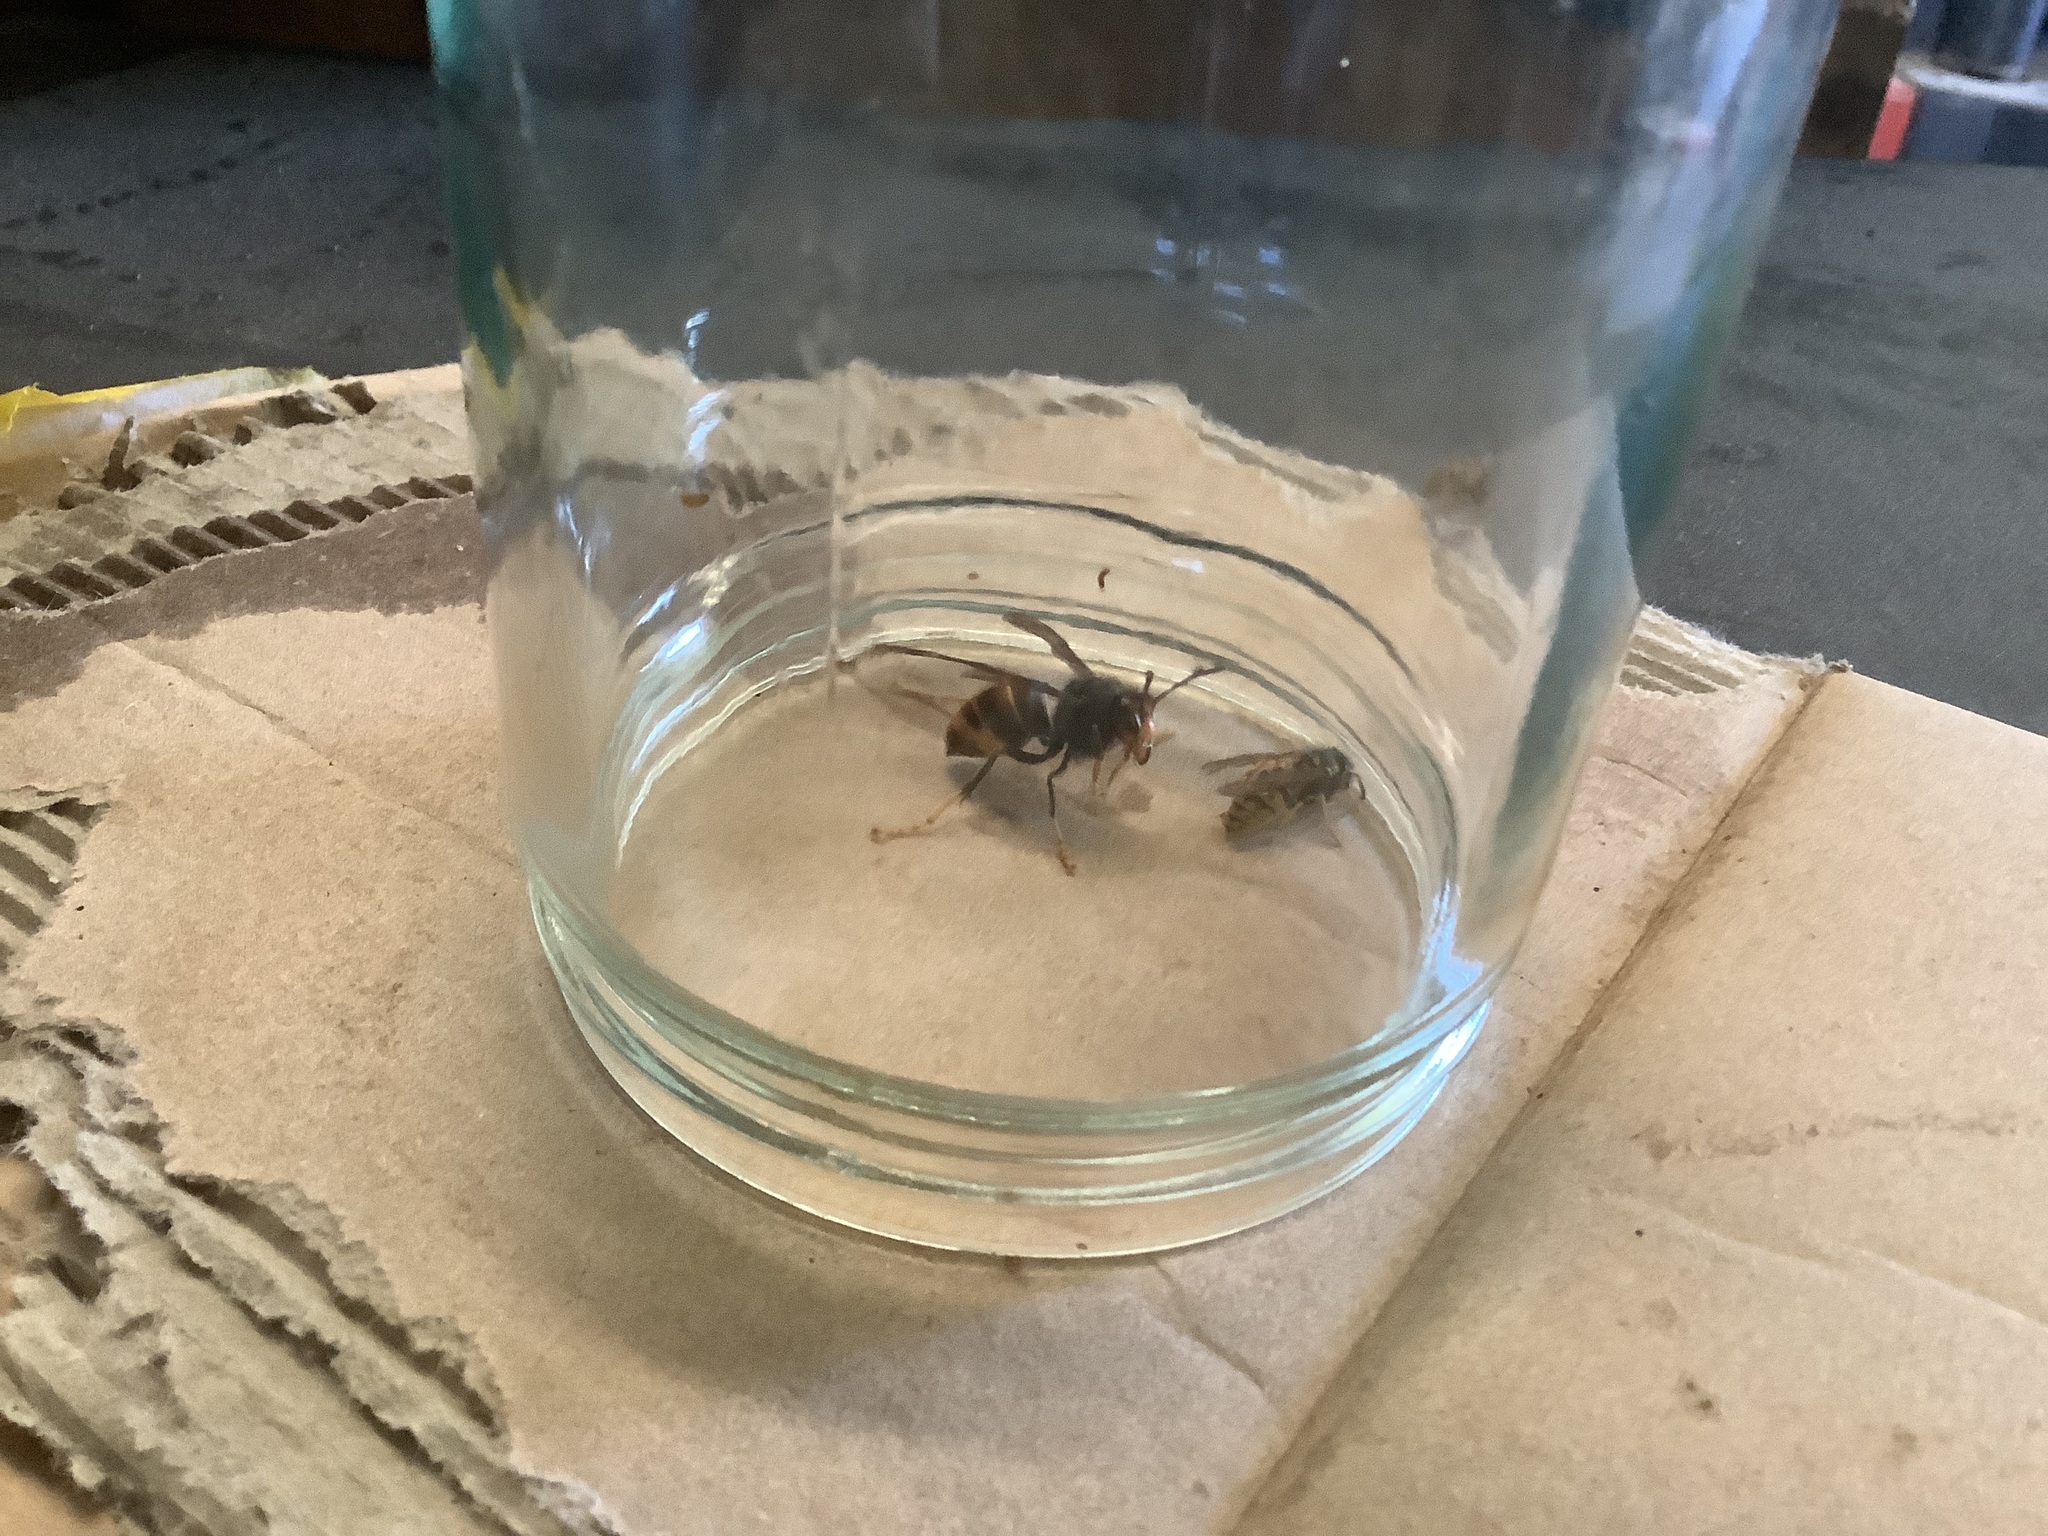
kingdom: Animalia
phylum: Arthropoda
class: Insecta
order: Hymenoptera
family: Vespidae
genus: Vespa
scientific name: Vespa velutina
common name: Asian hornet
